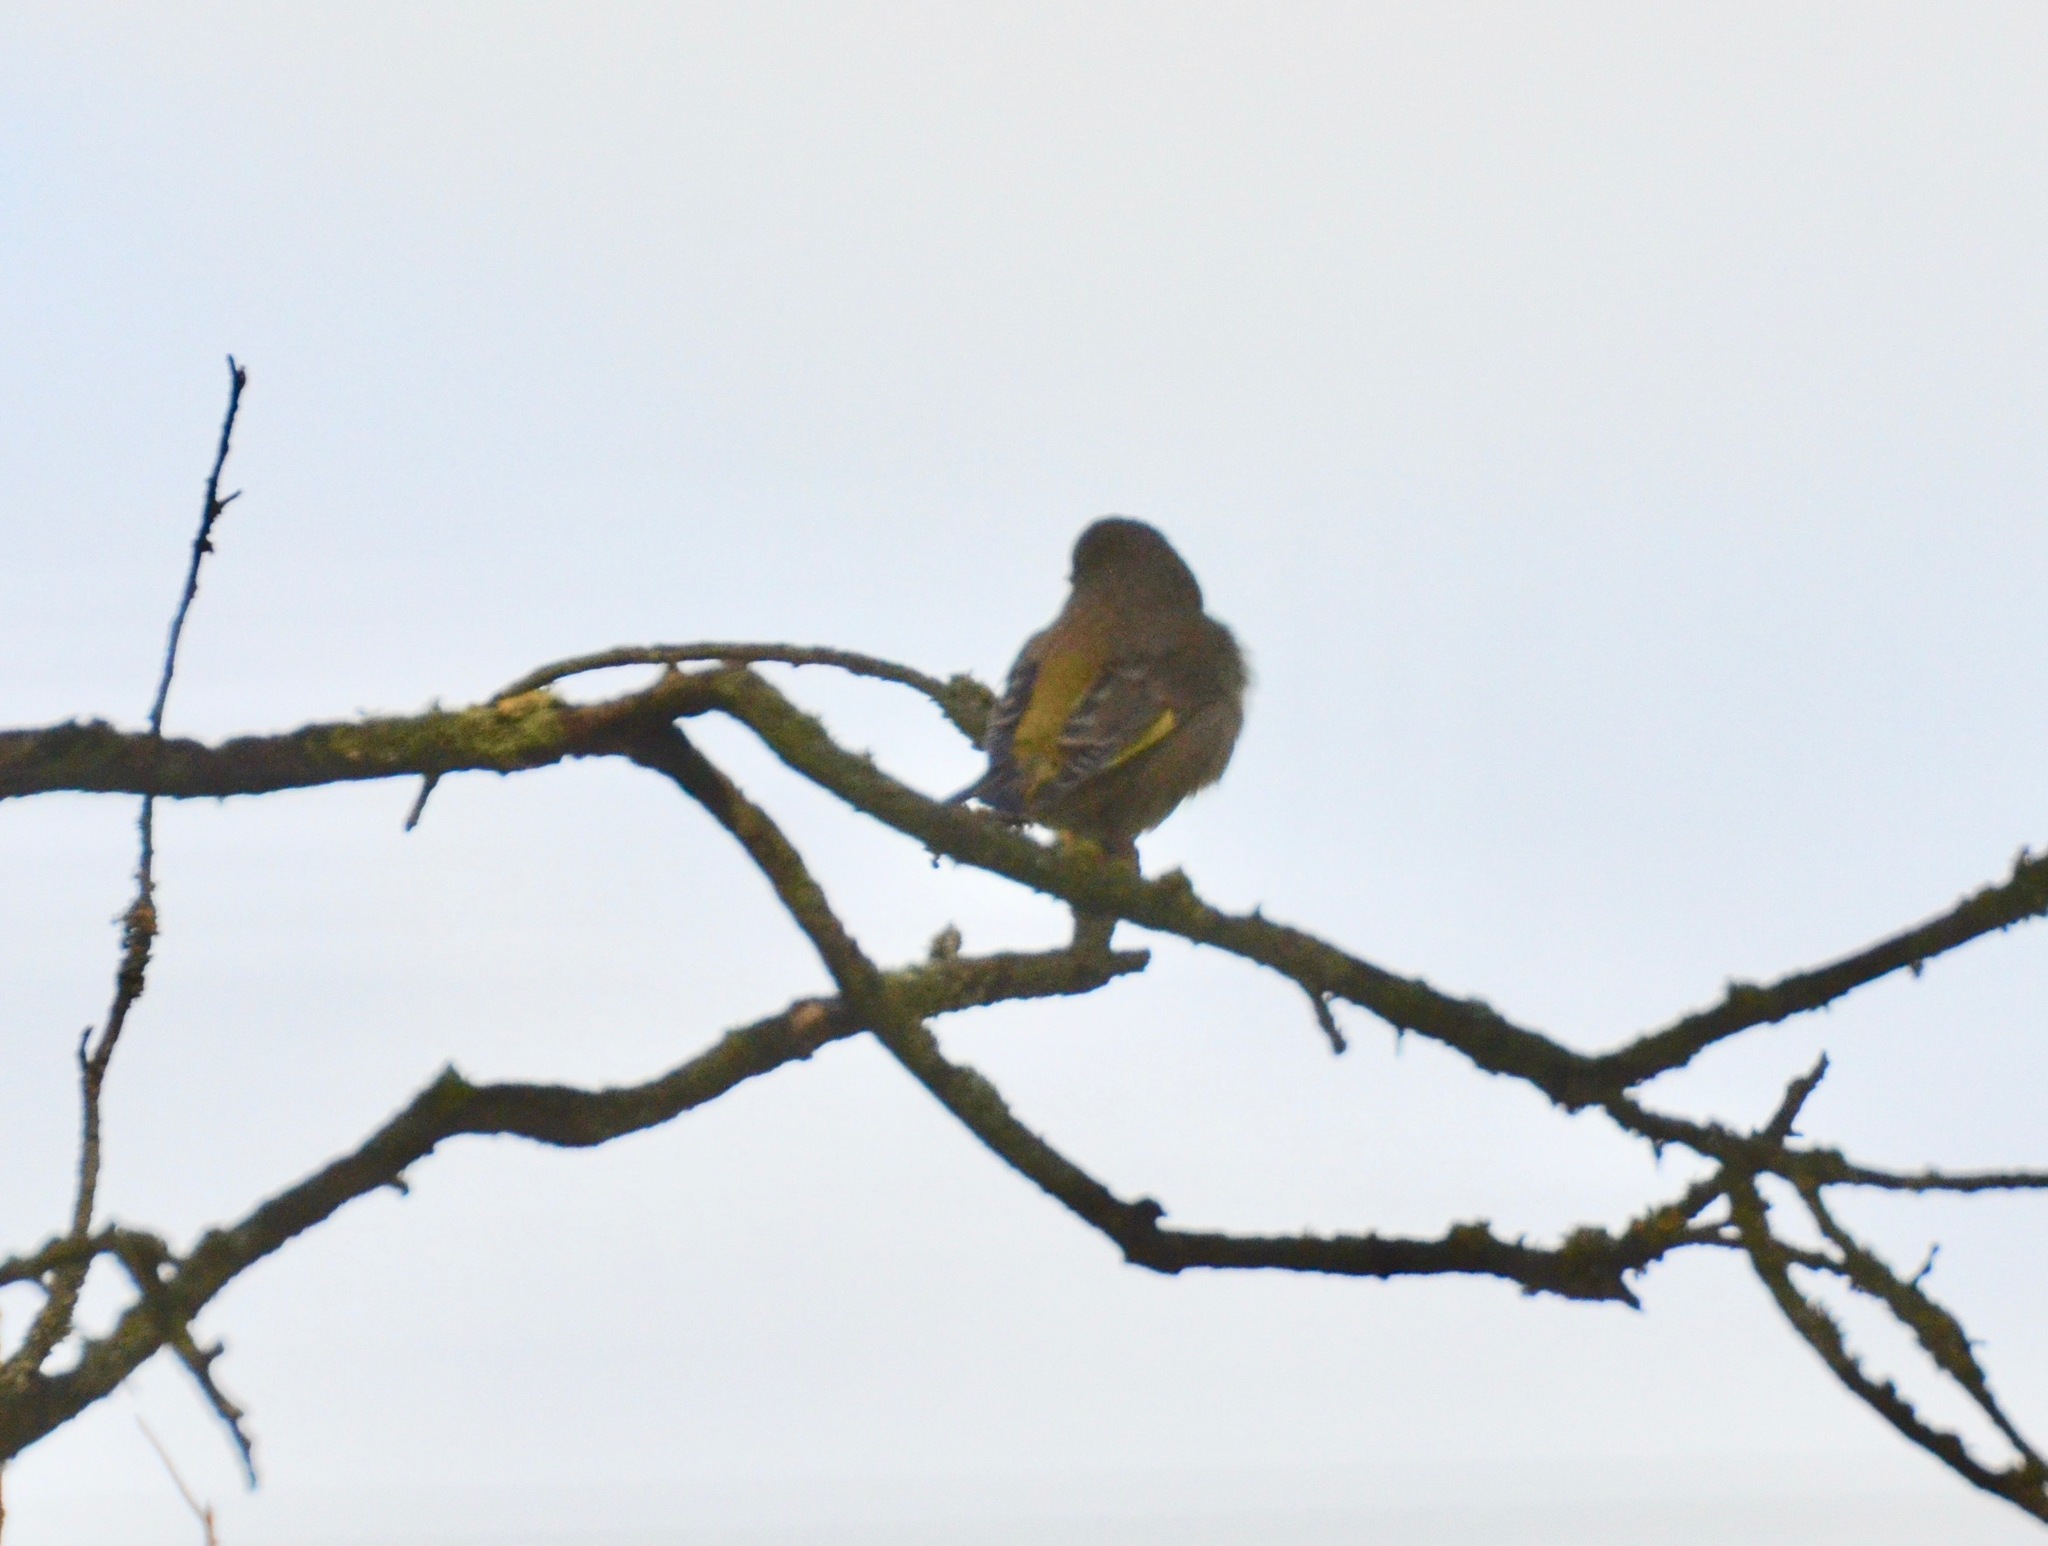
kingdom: Plantae
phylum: Tracheophyta
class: Liliopsida
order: Poales
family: Poaceae
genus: Chloris
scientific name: Chloris chloris
